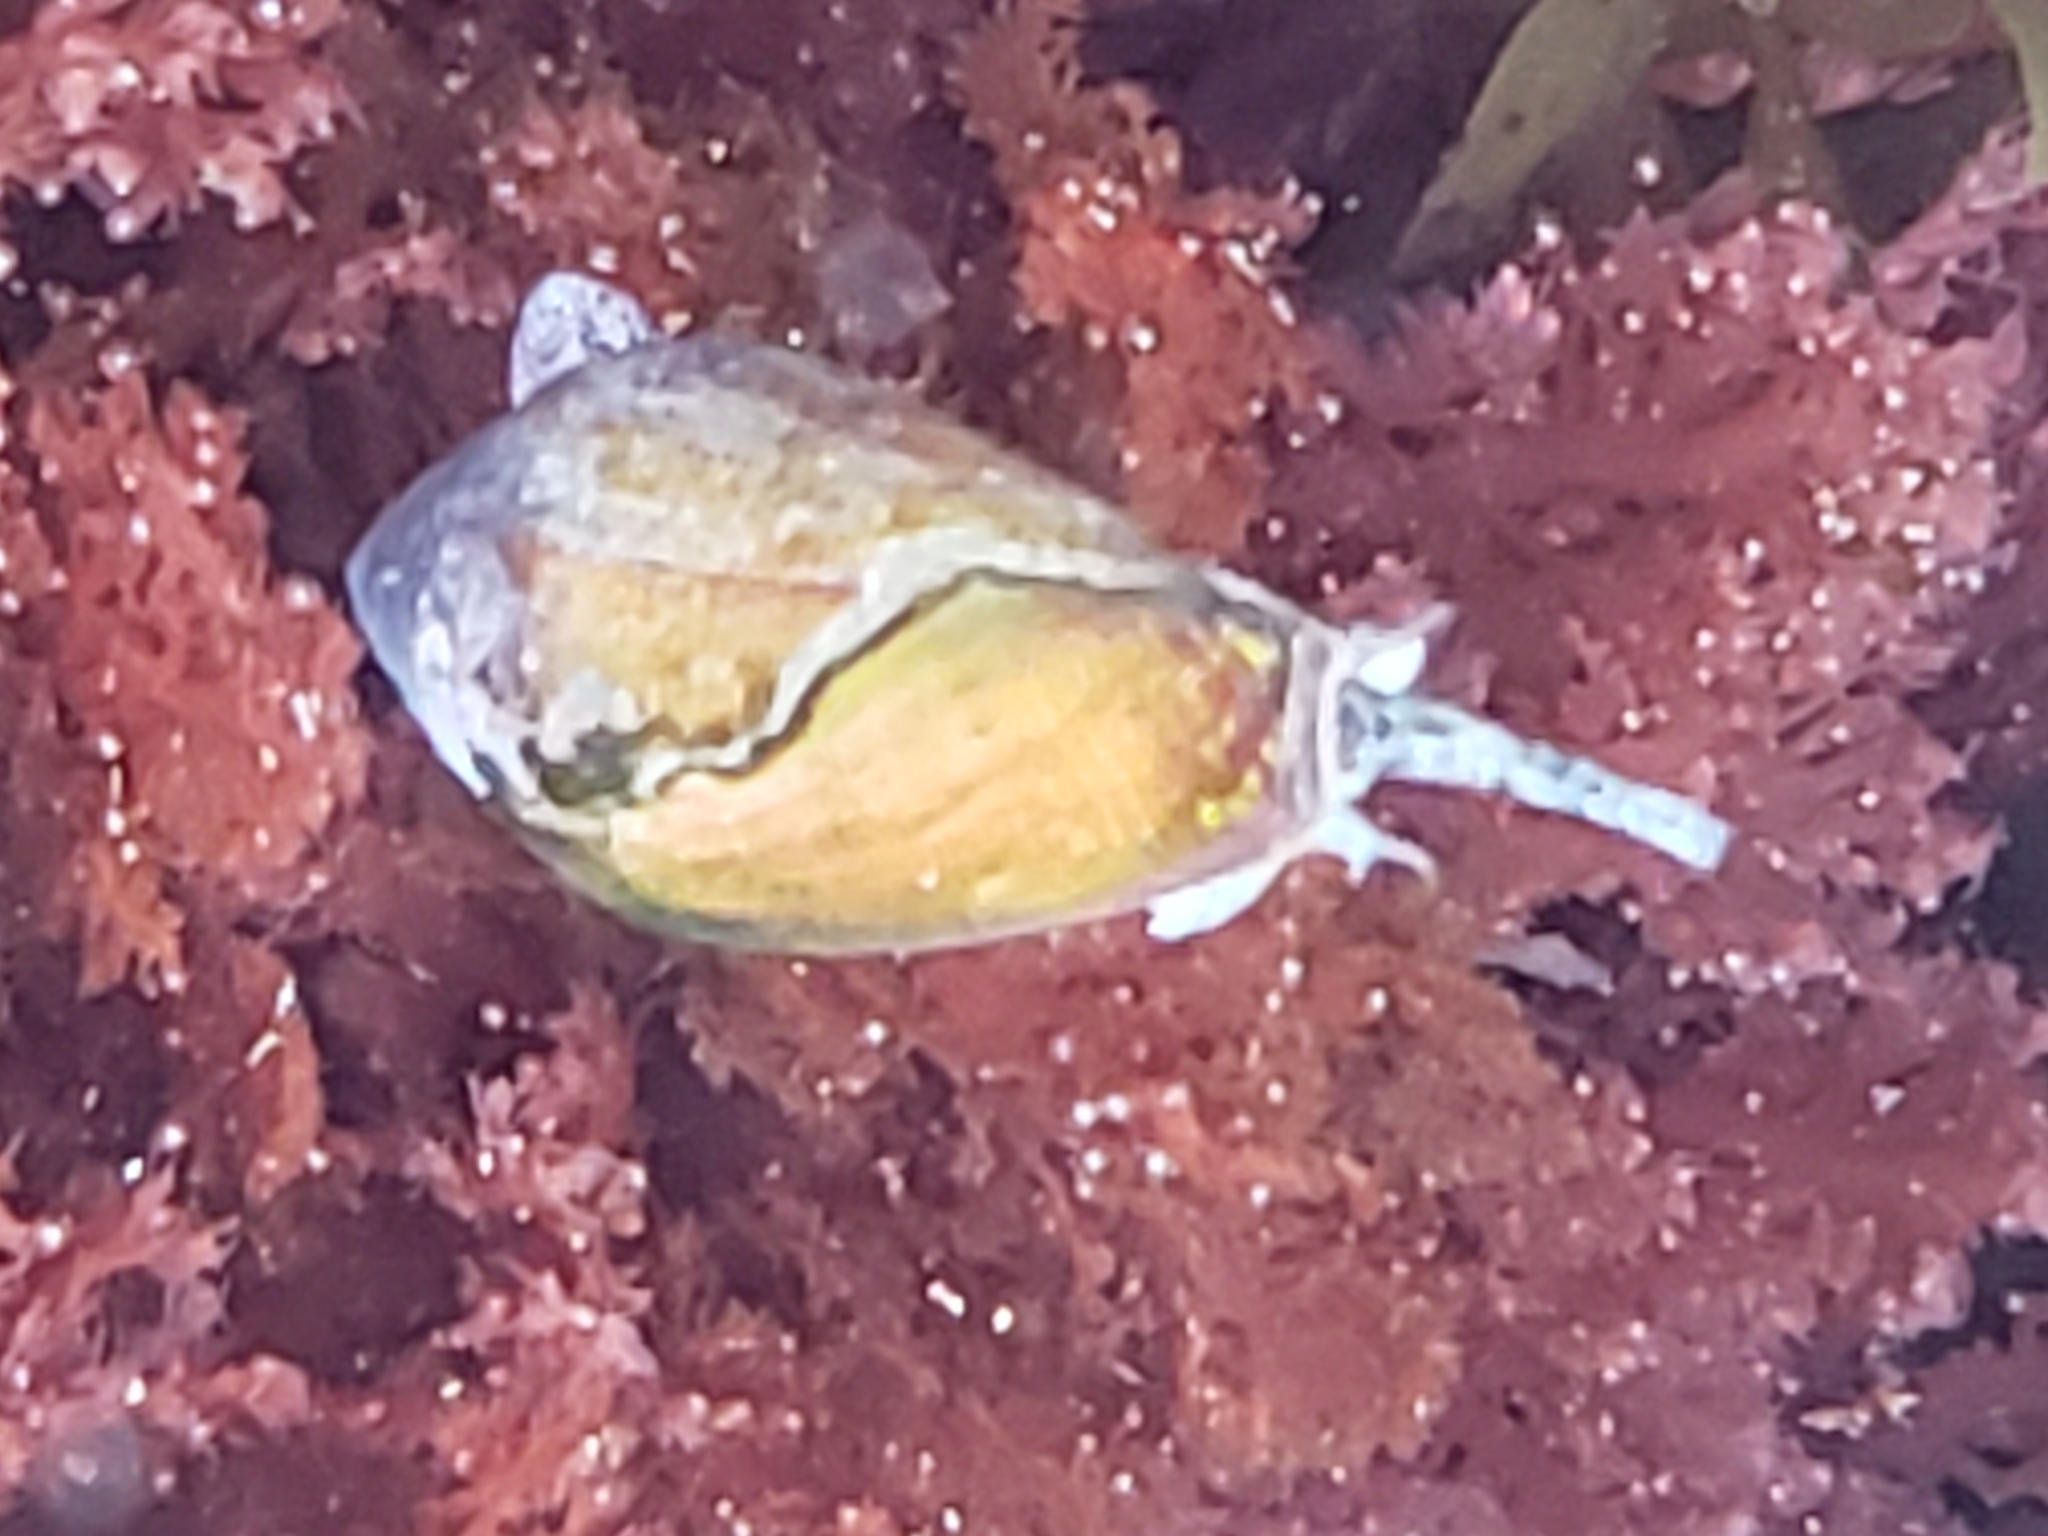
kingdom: Animalia
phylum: Mollusca
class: Gastropoda
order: Neogastropoda
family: Conidae
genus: Californiconus
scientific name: Californiconus californicus
